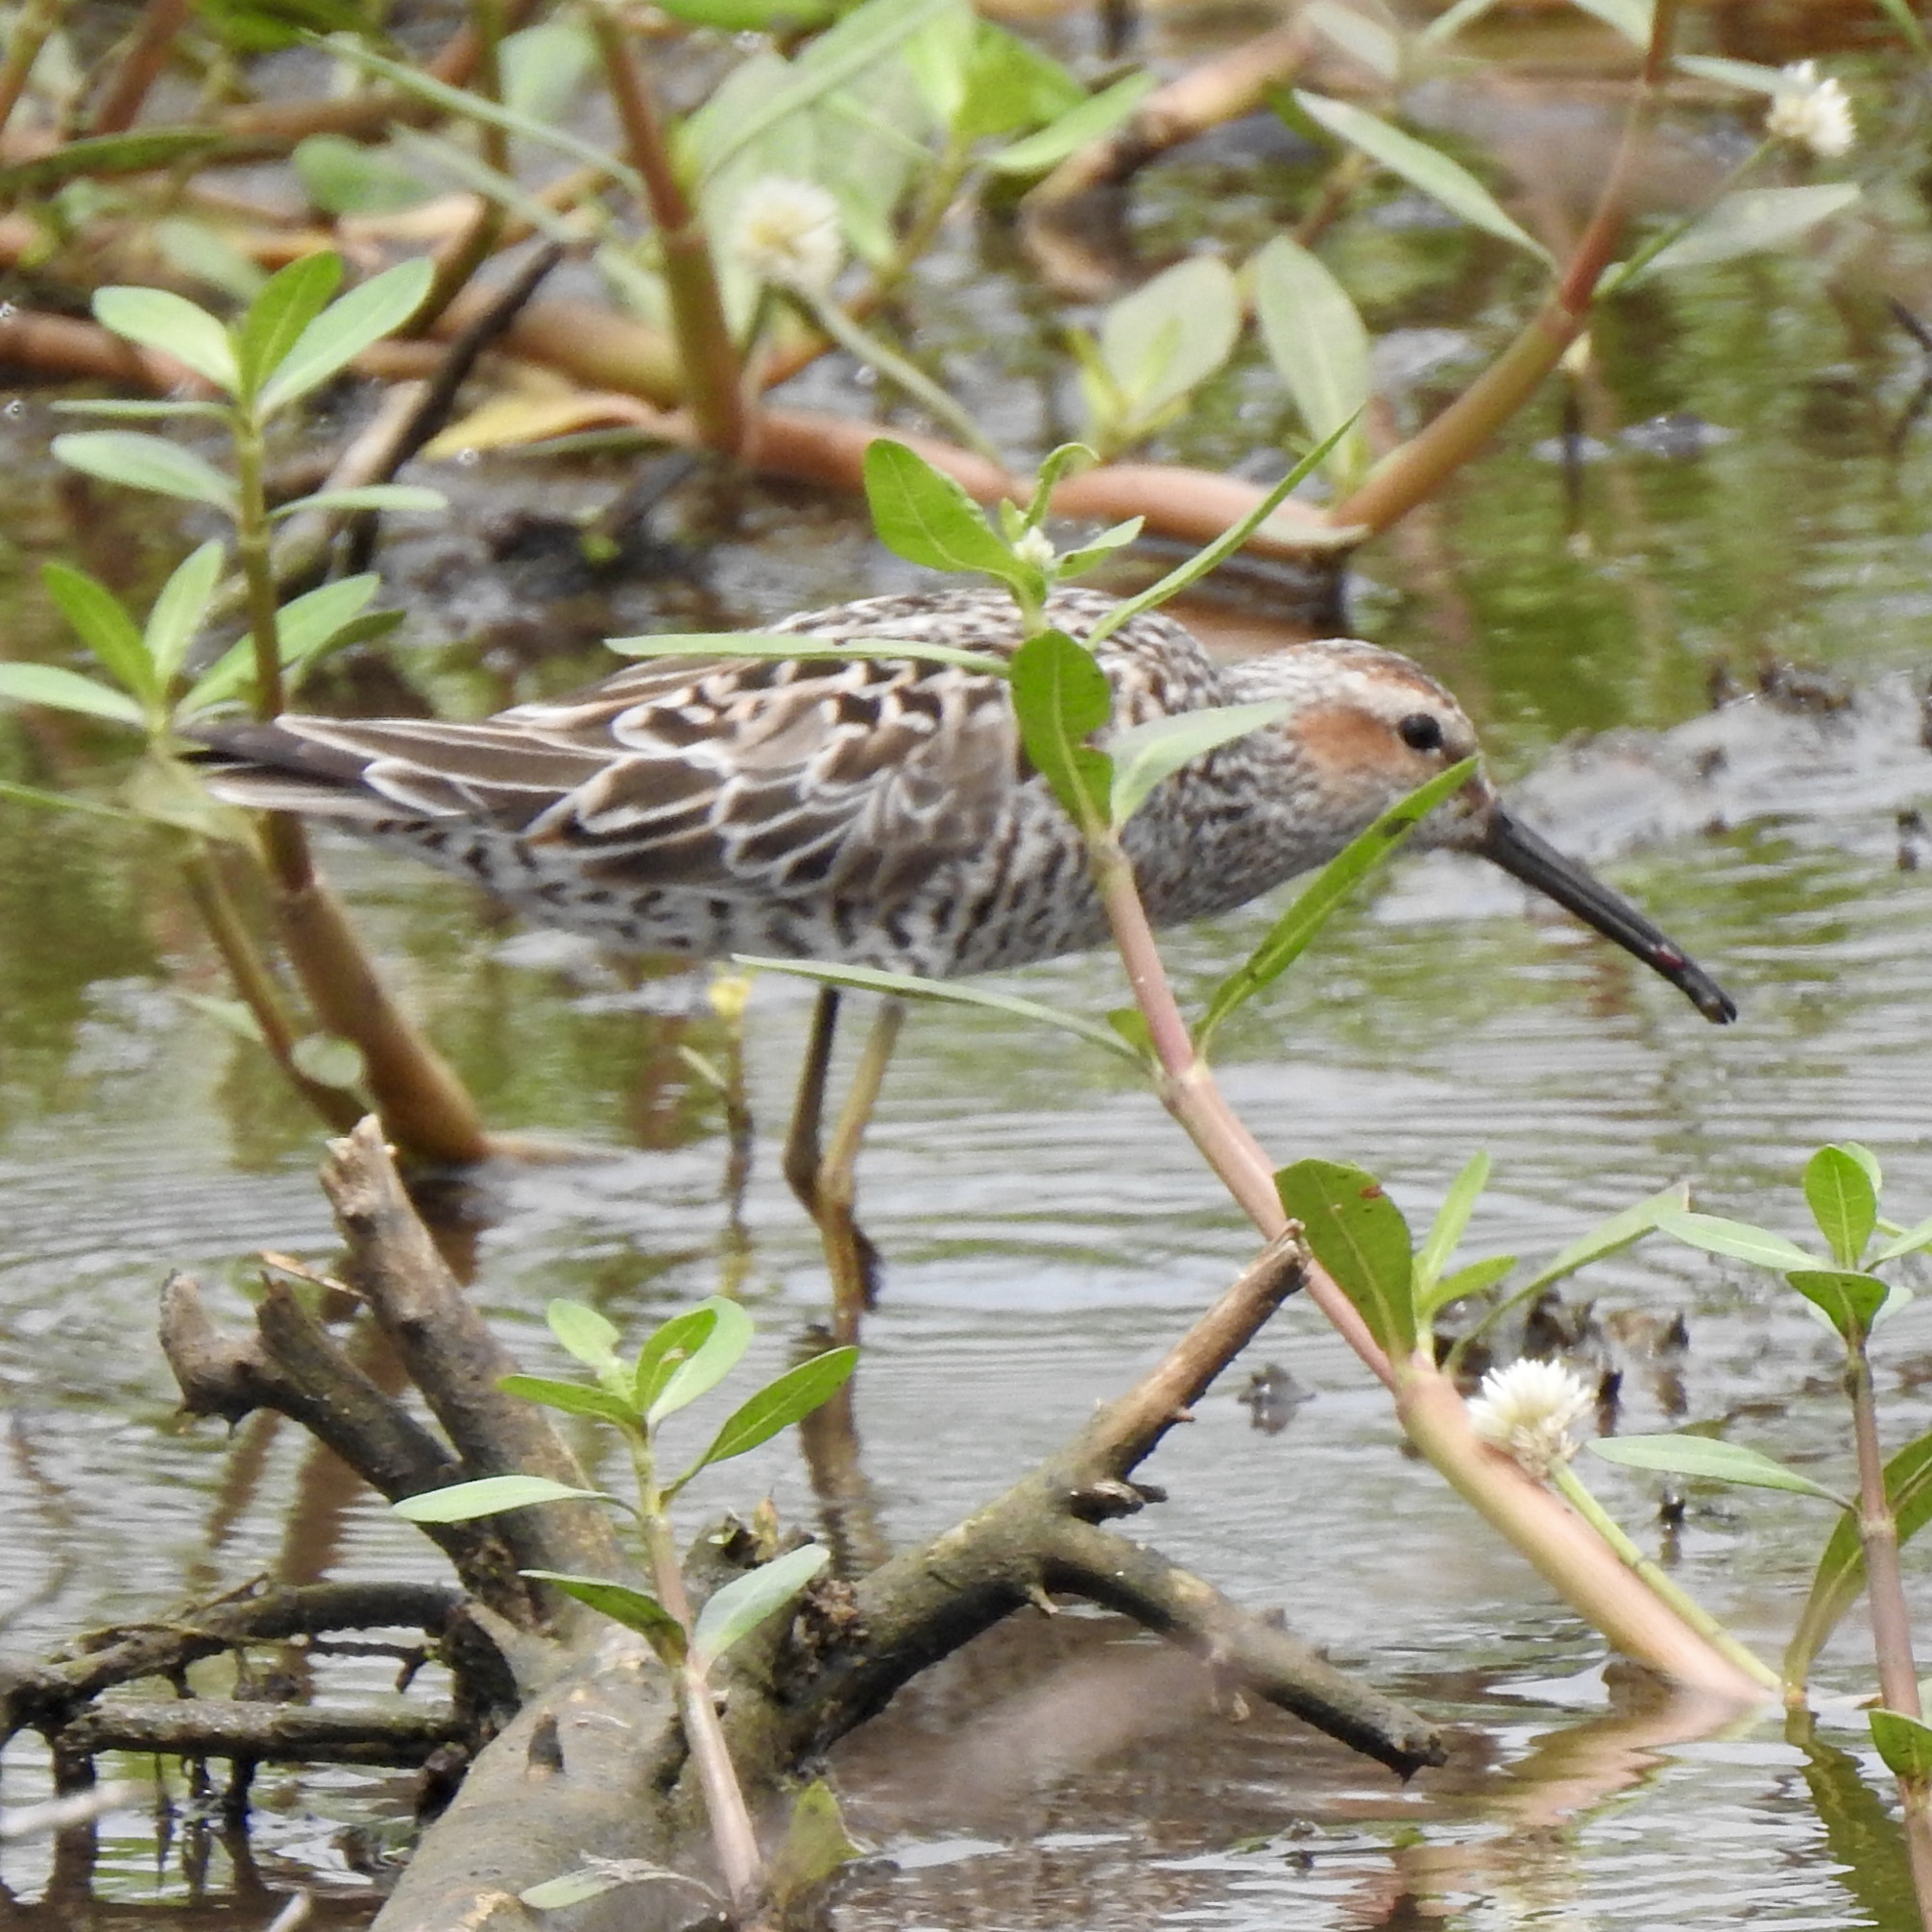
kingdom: Animalia
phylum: Chordata
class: Aves
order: Charadriiformes
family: Scolopacidae
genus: Calidris
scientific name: Calidris himantopus
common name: Stilt sandpiper
